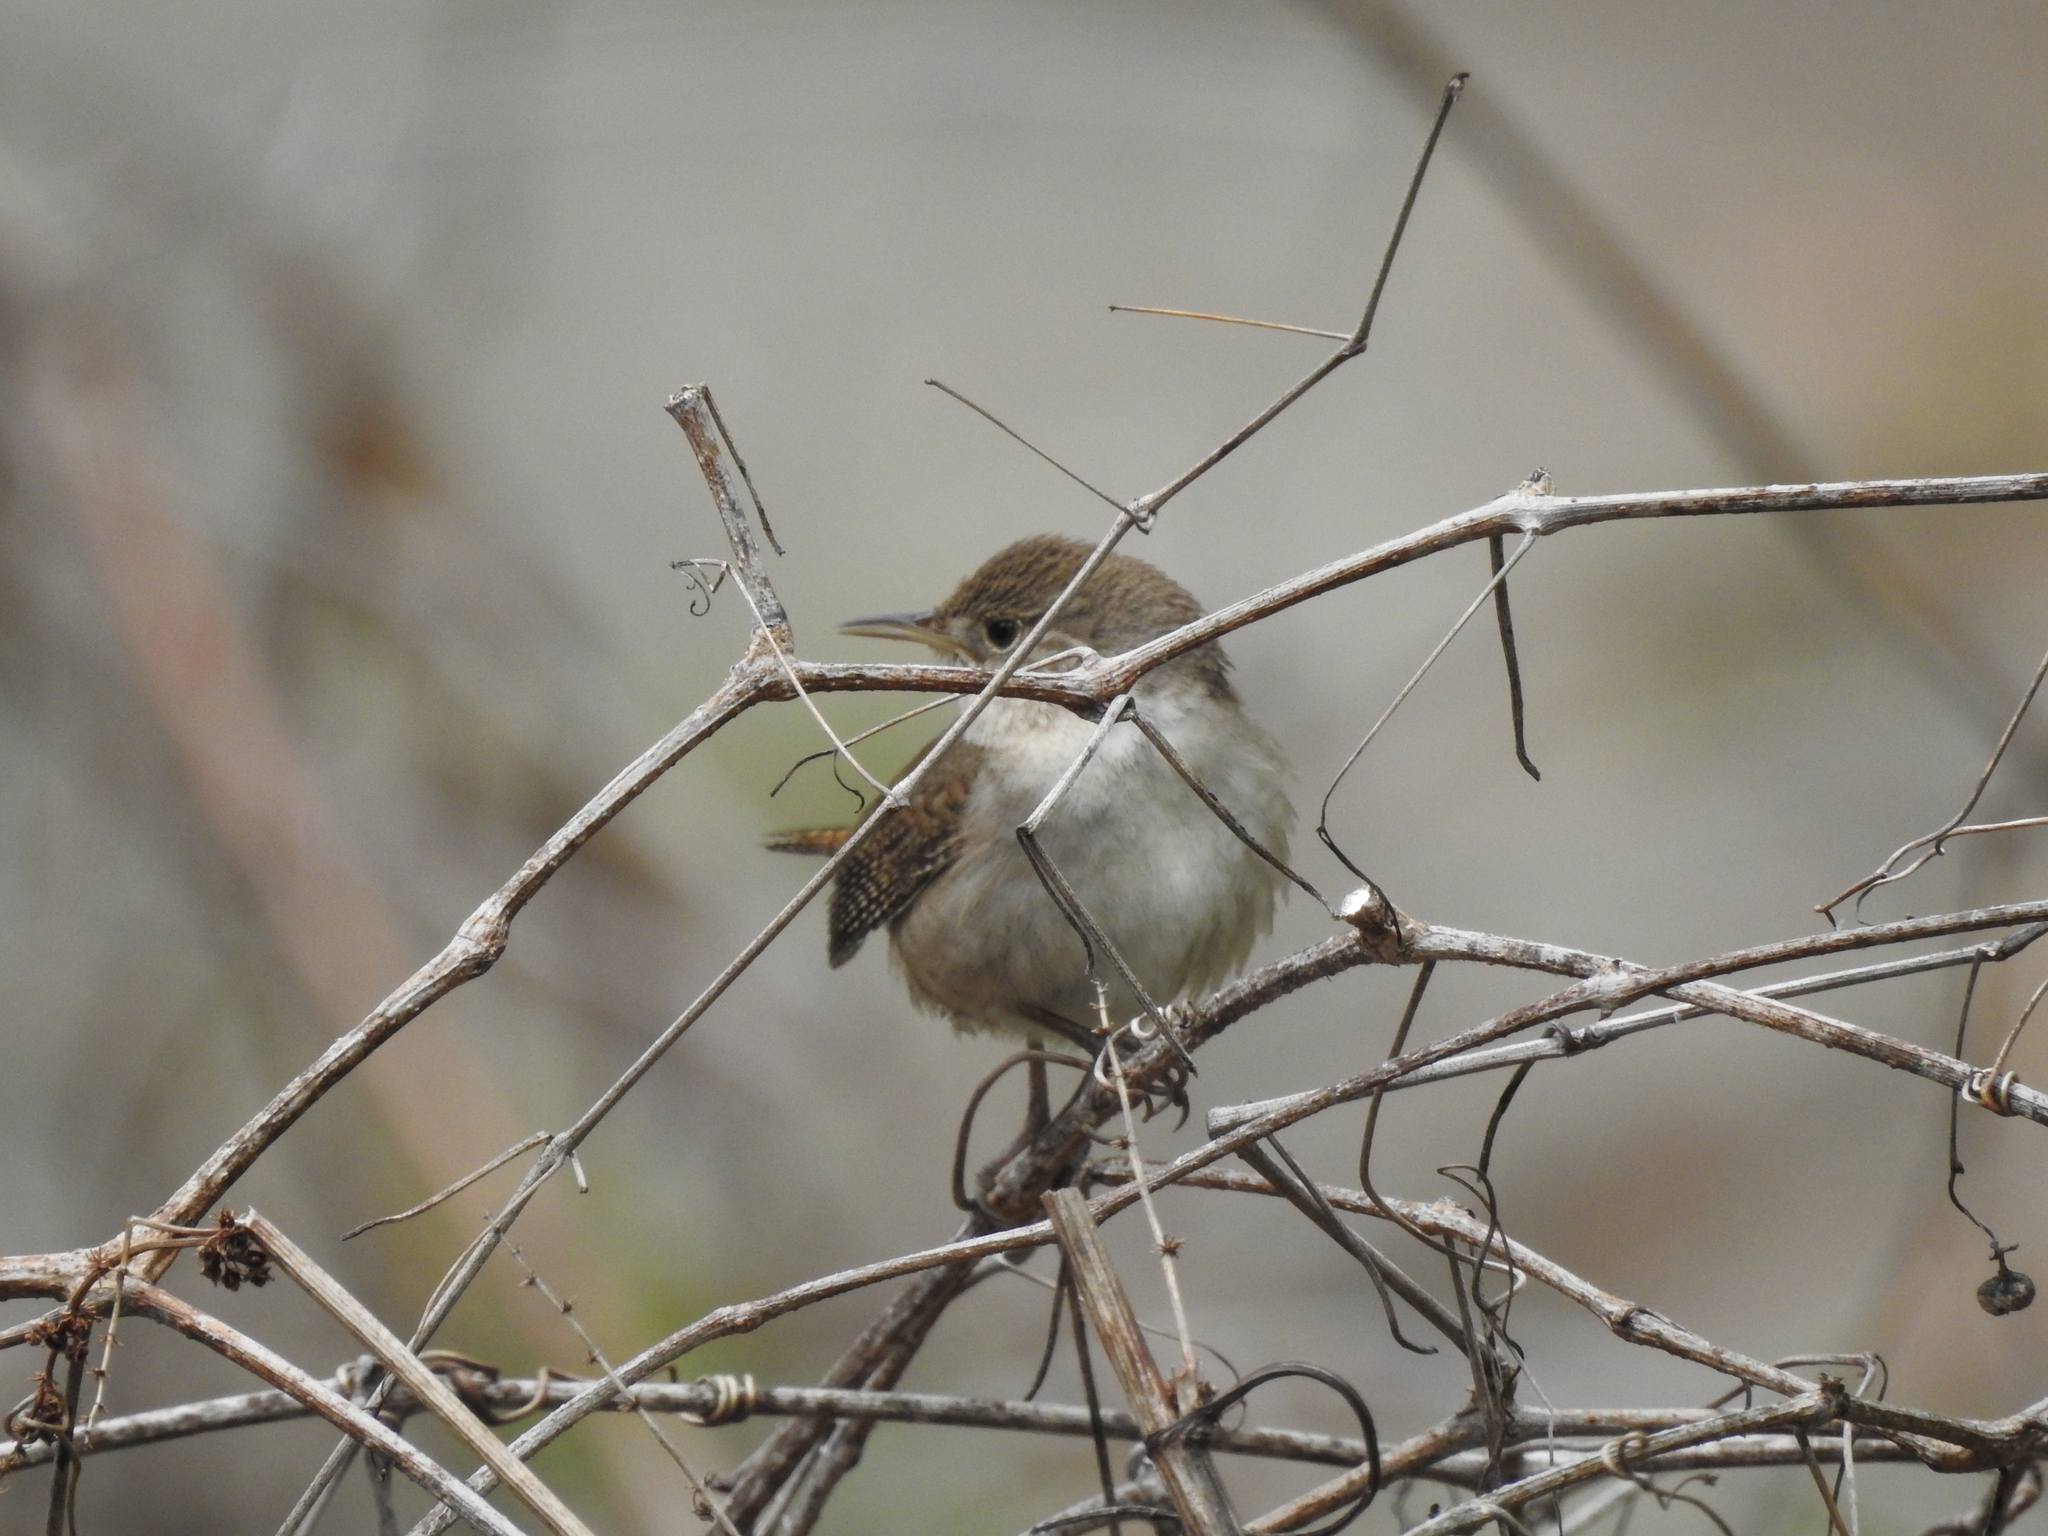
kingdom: Animalia
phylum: Chordata
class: Aves
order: Passeriformes
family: Troglodytidae
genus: Troglodytes
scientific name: Troglodytes aedon
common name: House wren
